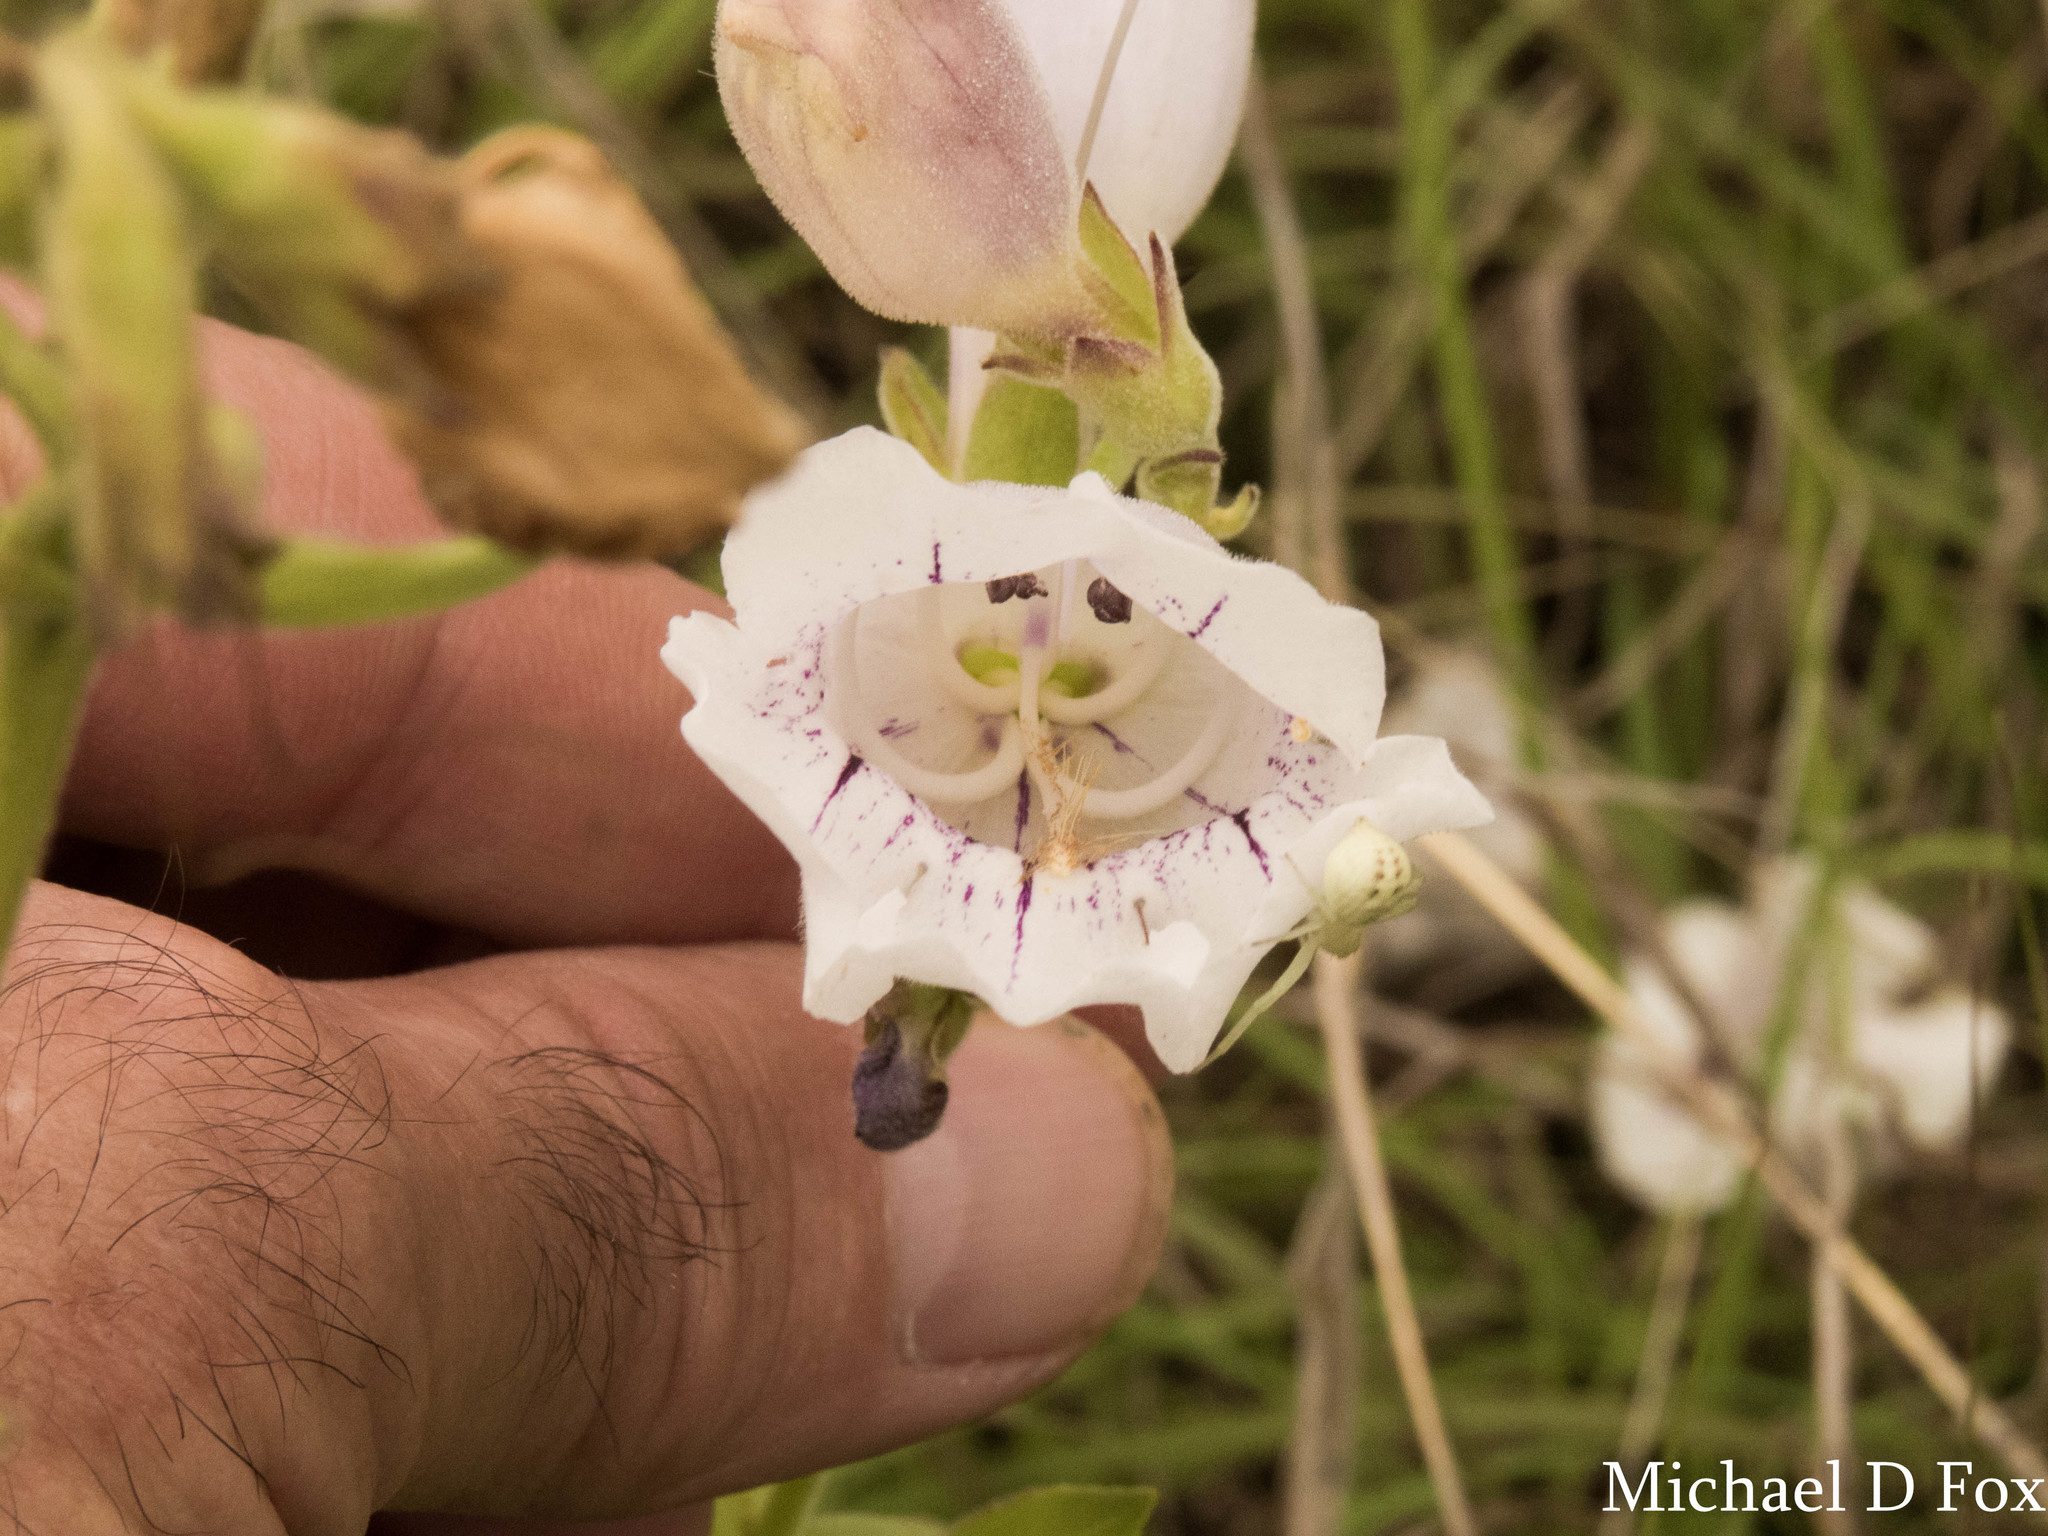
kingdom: Plantae
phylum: Tracheophyta
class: Magnoliopsida
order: Lamiales
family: Plantaginaceae
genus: Penstemon
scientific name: Penstemon cobaea
